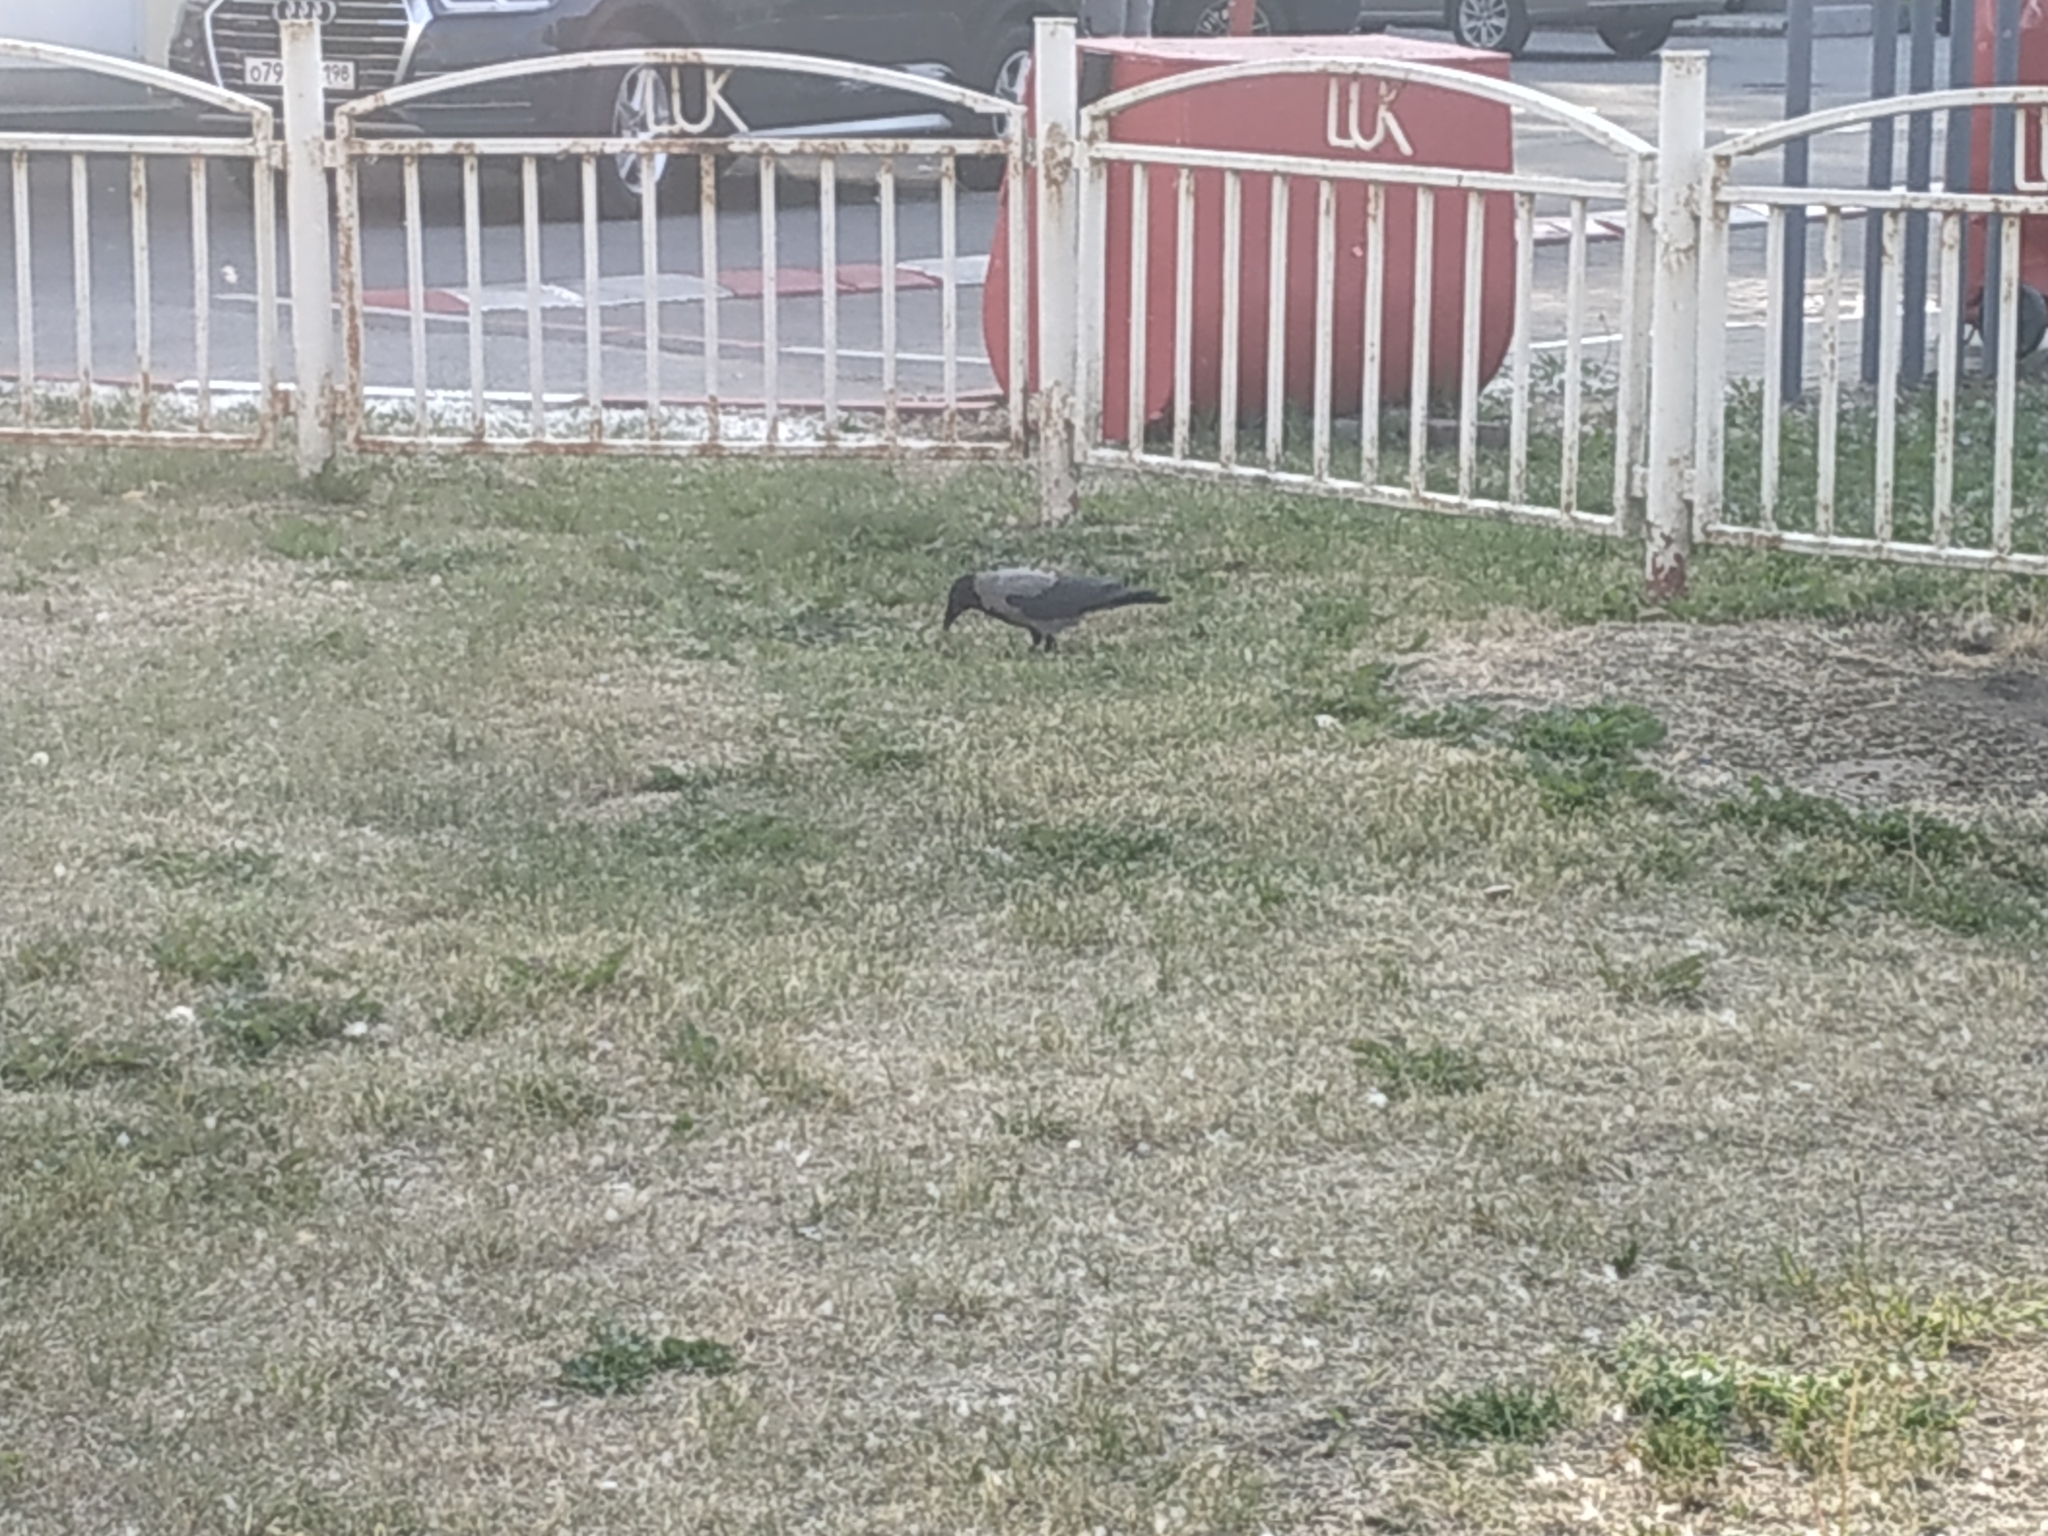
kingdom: Animalia
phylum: Chordata
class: Aves
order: Passeriformes
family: Corvidae
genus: Corvus
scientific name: Corvus cornix
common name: Hooded crow
